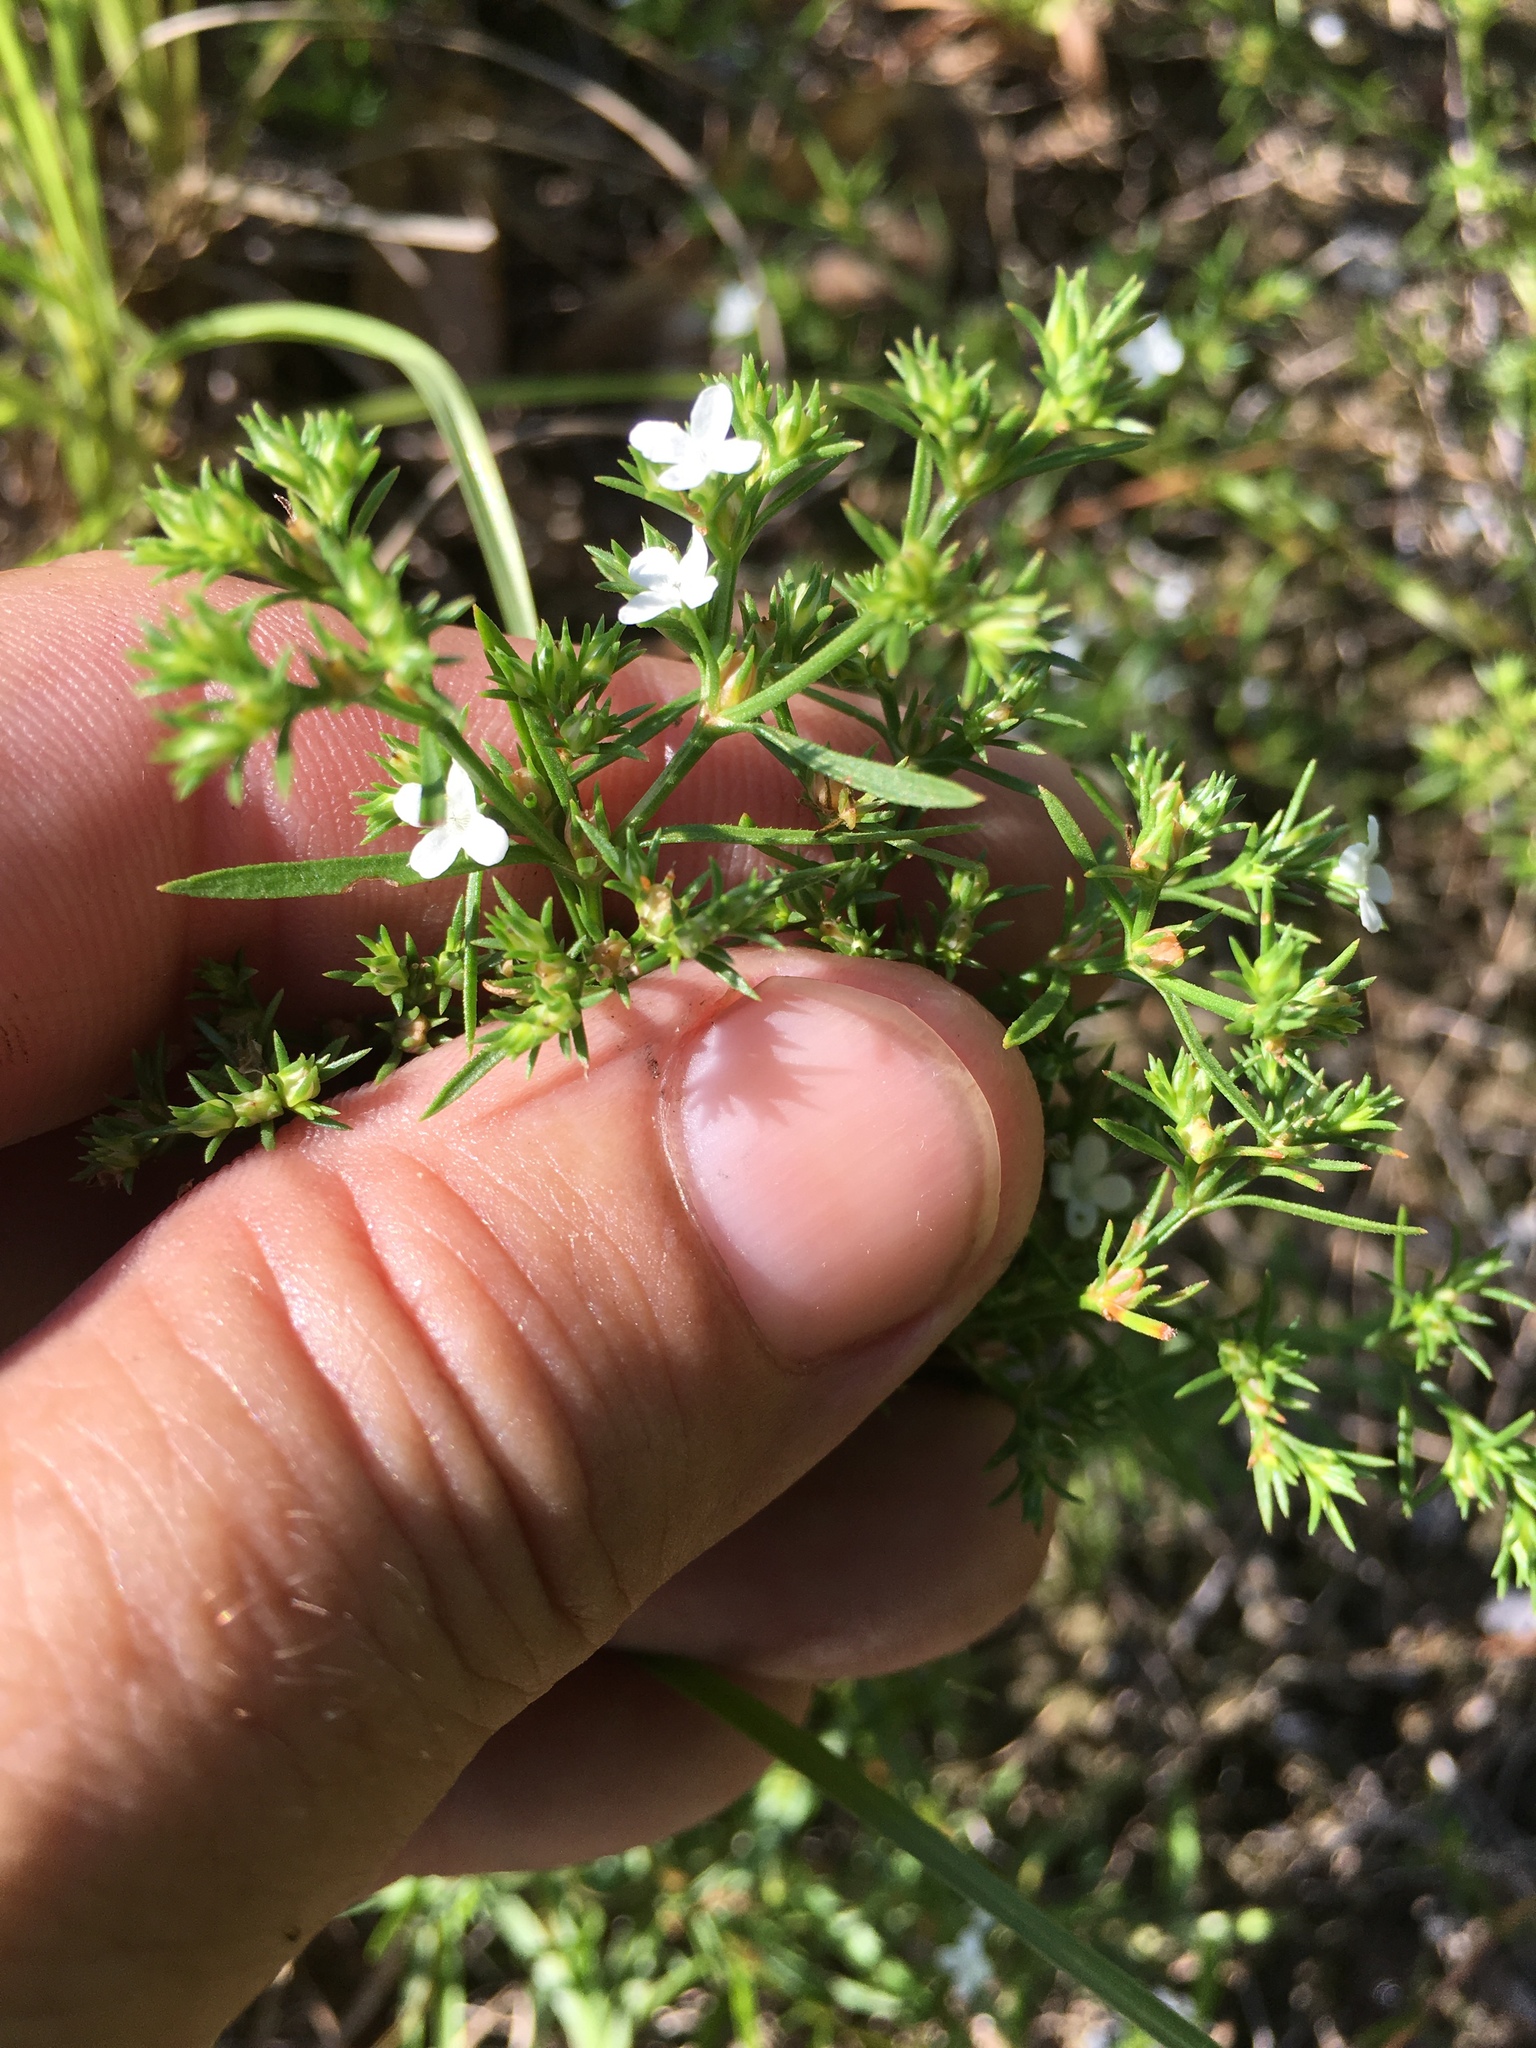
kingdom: Plantae
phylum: Tracheophyta
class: Magnoliopsida
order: Lamiales
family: Tetrachondraceae
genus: Polypremum
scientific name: Polypremum procumbens
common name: Juniper-leaf
